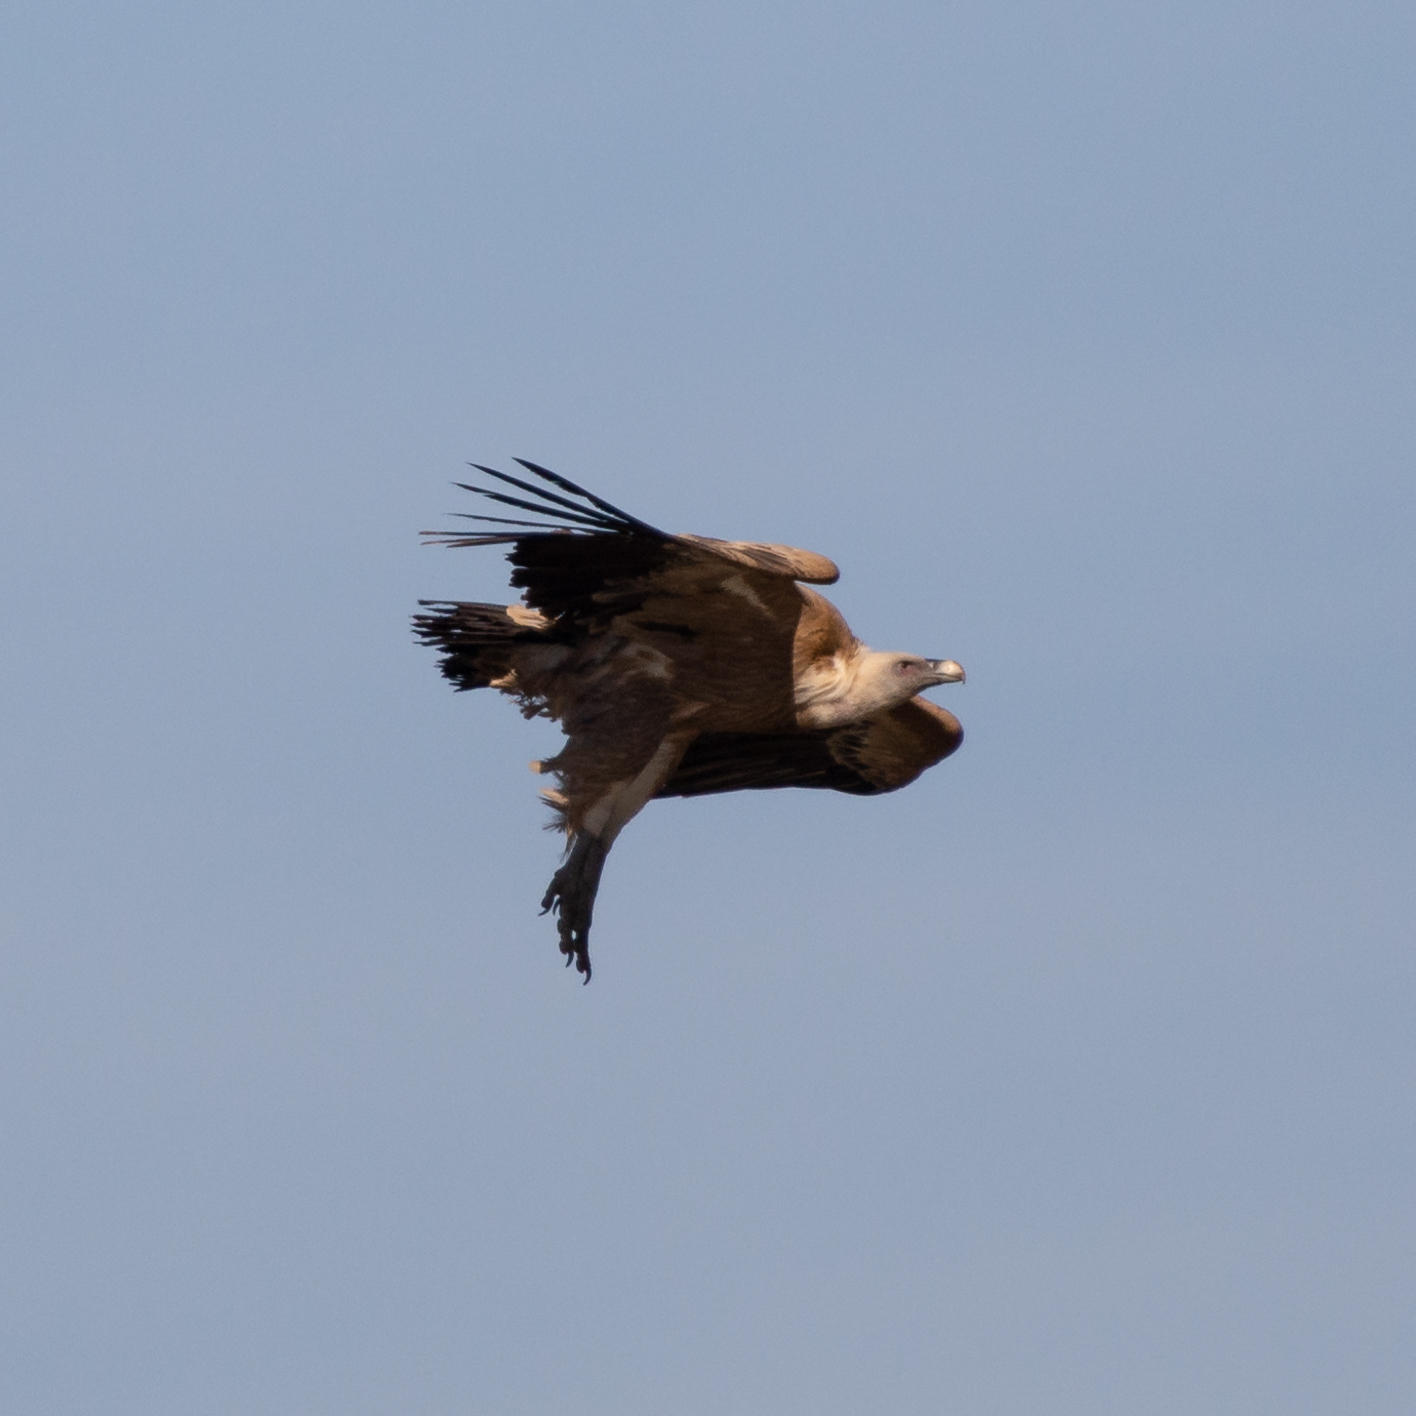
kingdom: Animalia
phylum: Chordata
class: Aves
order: Accipitriformes
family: Accipitridae
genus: Gyps
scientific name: Gyps fulvus
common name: Griffon vulture
